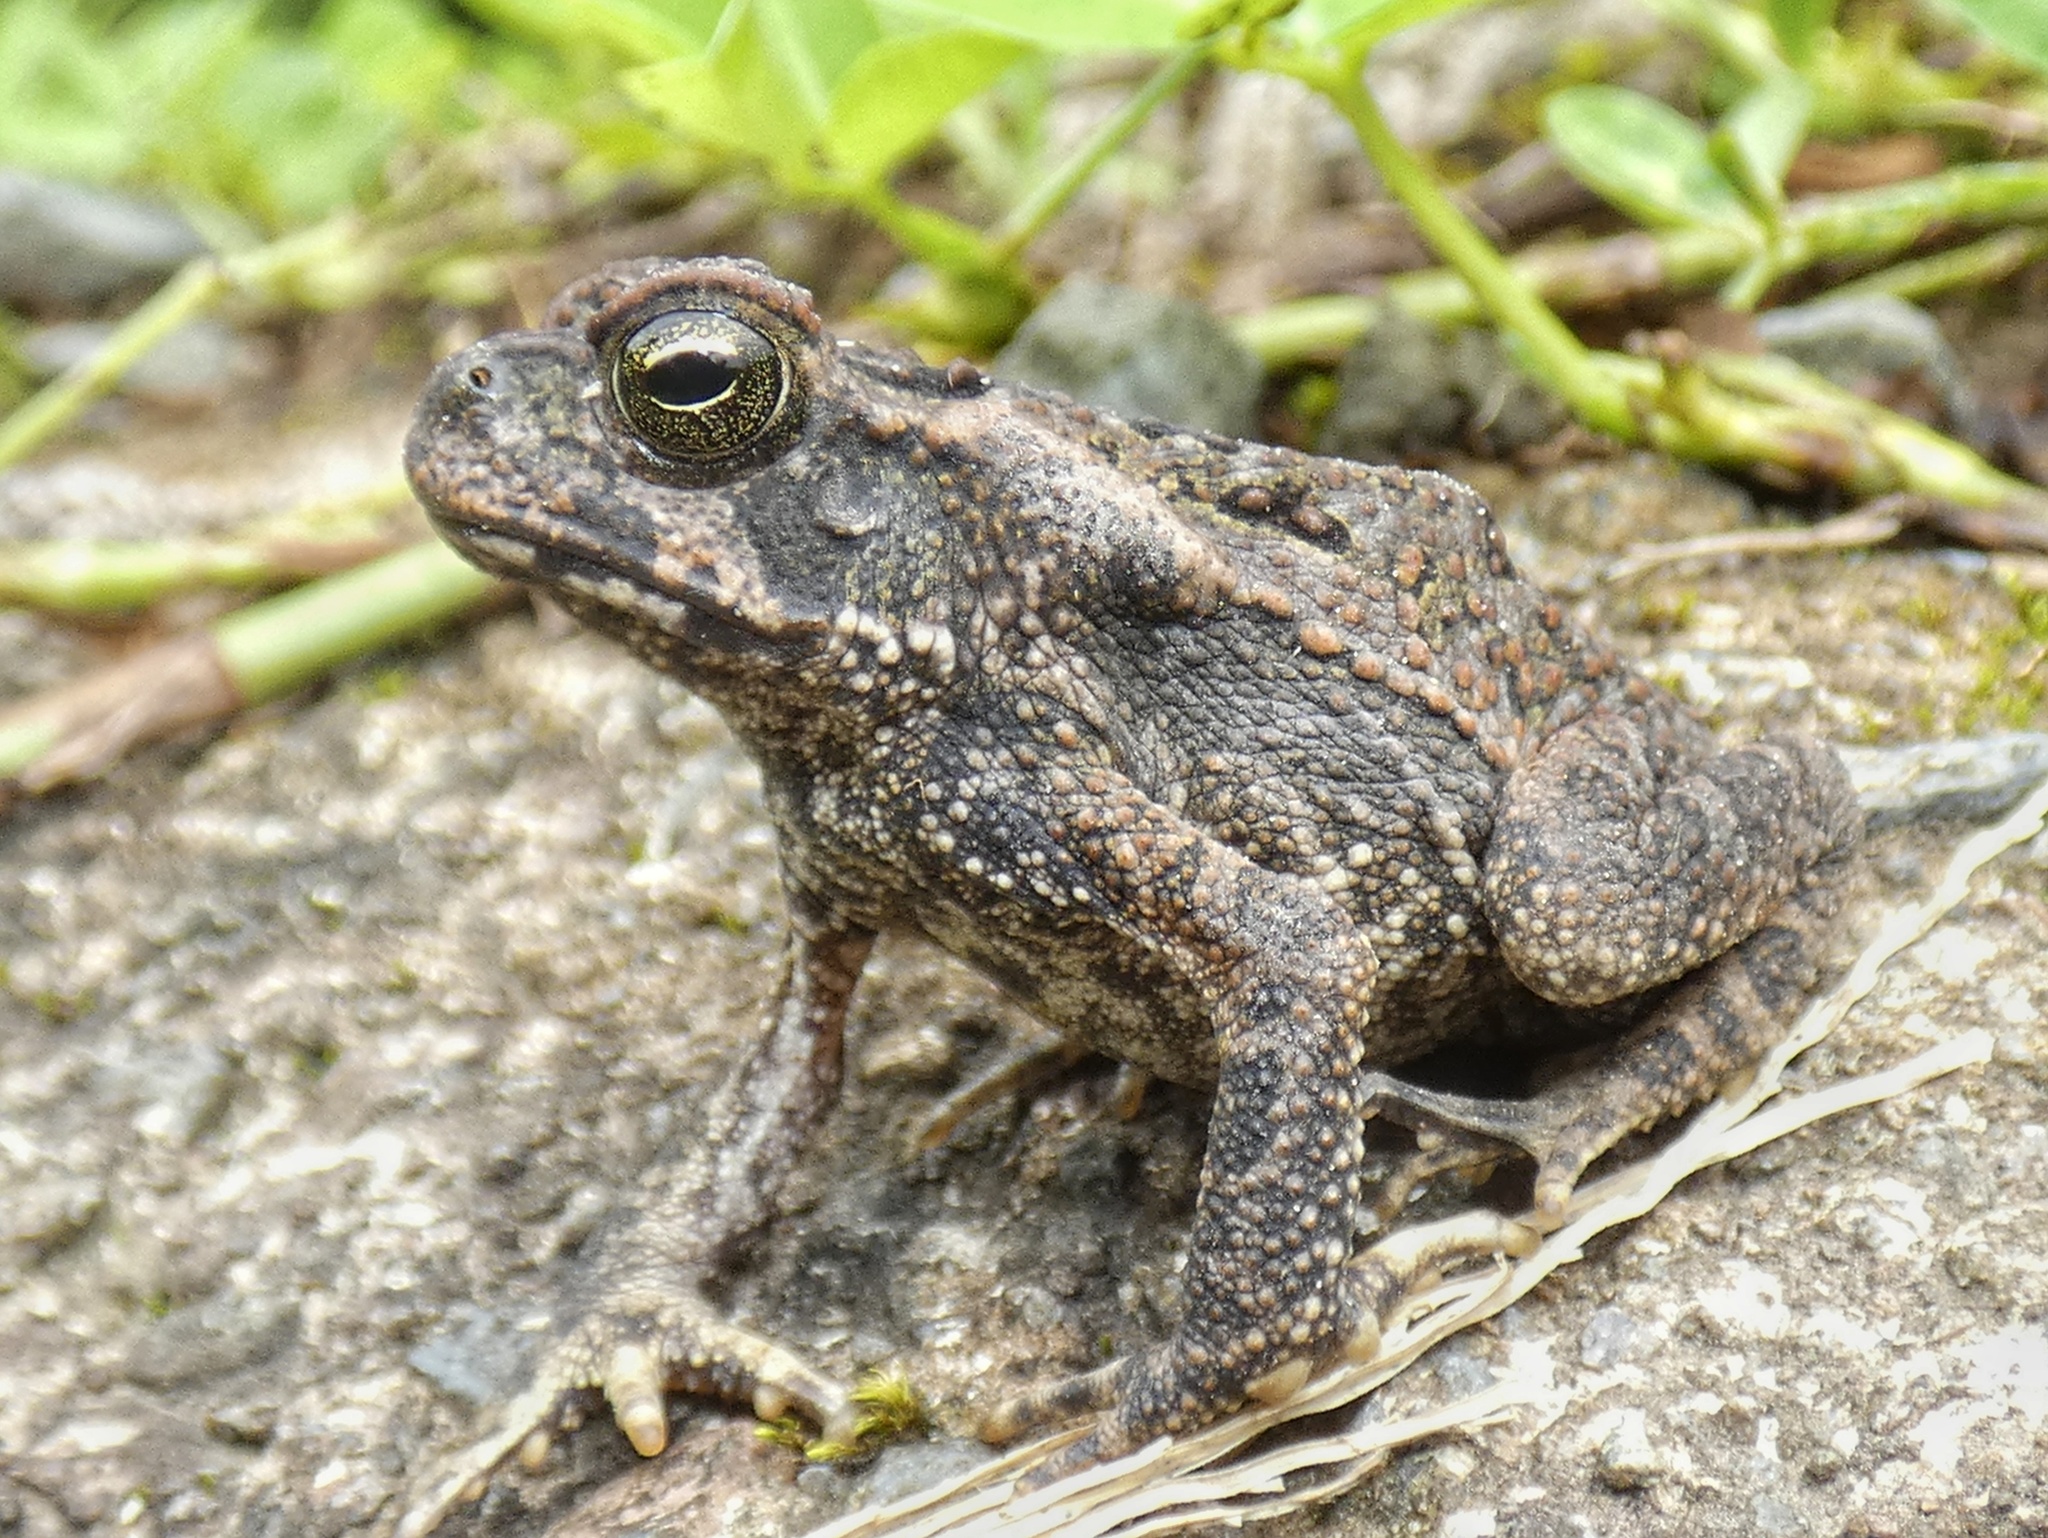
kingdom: Animalia
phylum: Chordata
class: Amphibia
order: Anura
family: Bufonidae
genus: Rhinella
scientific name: Rhinella horribilis
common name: Mesoamerican cane toad
